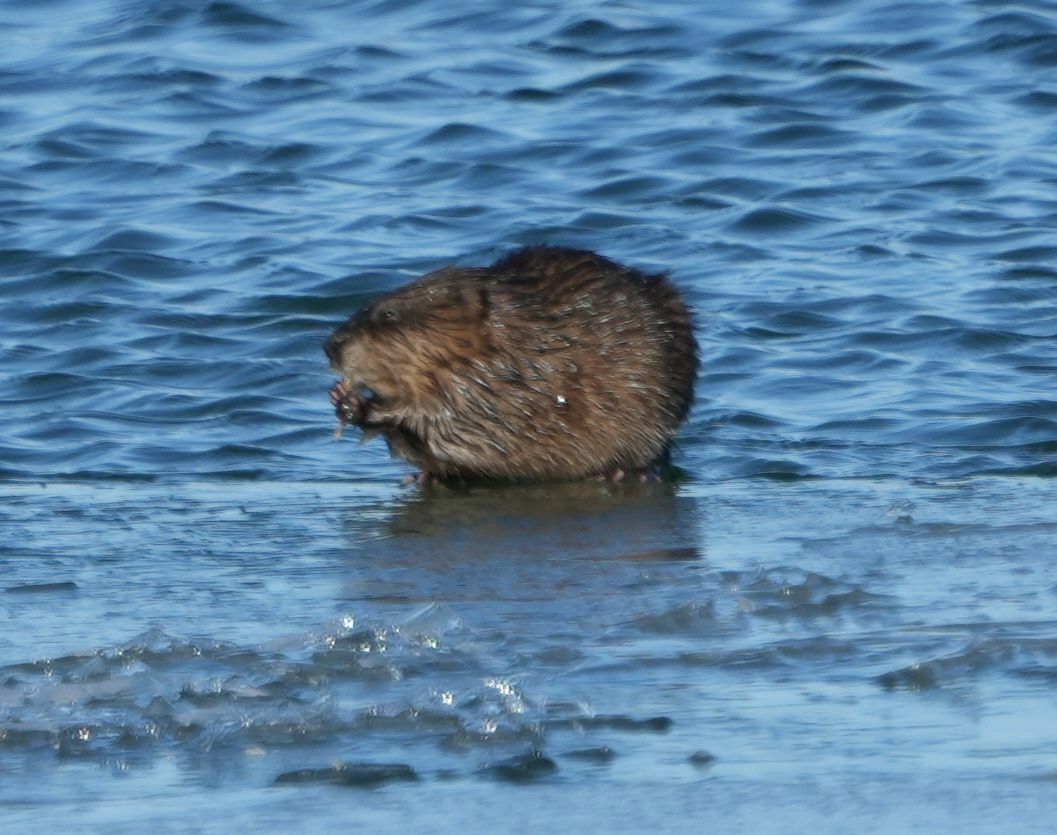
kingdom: Animalia
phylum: Chordata
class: Mammalia
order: Rodentia
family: Cricetidae
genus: Ondatra
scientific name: Ondatra zibethicus
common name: Muskrat
